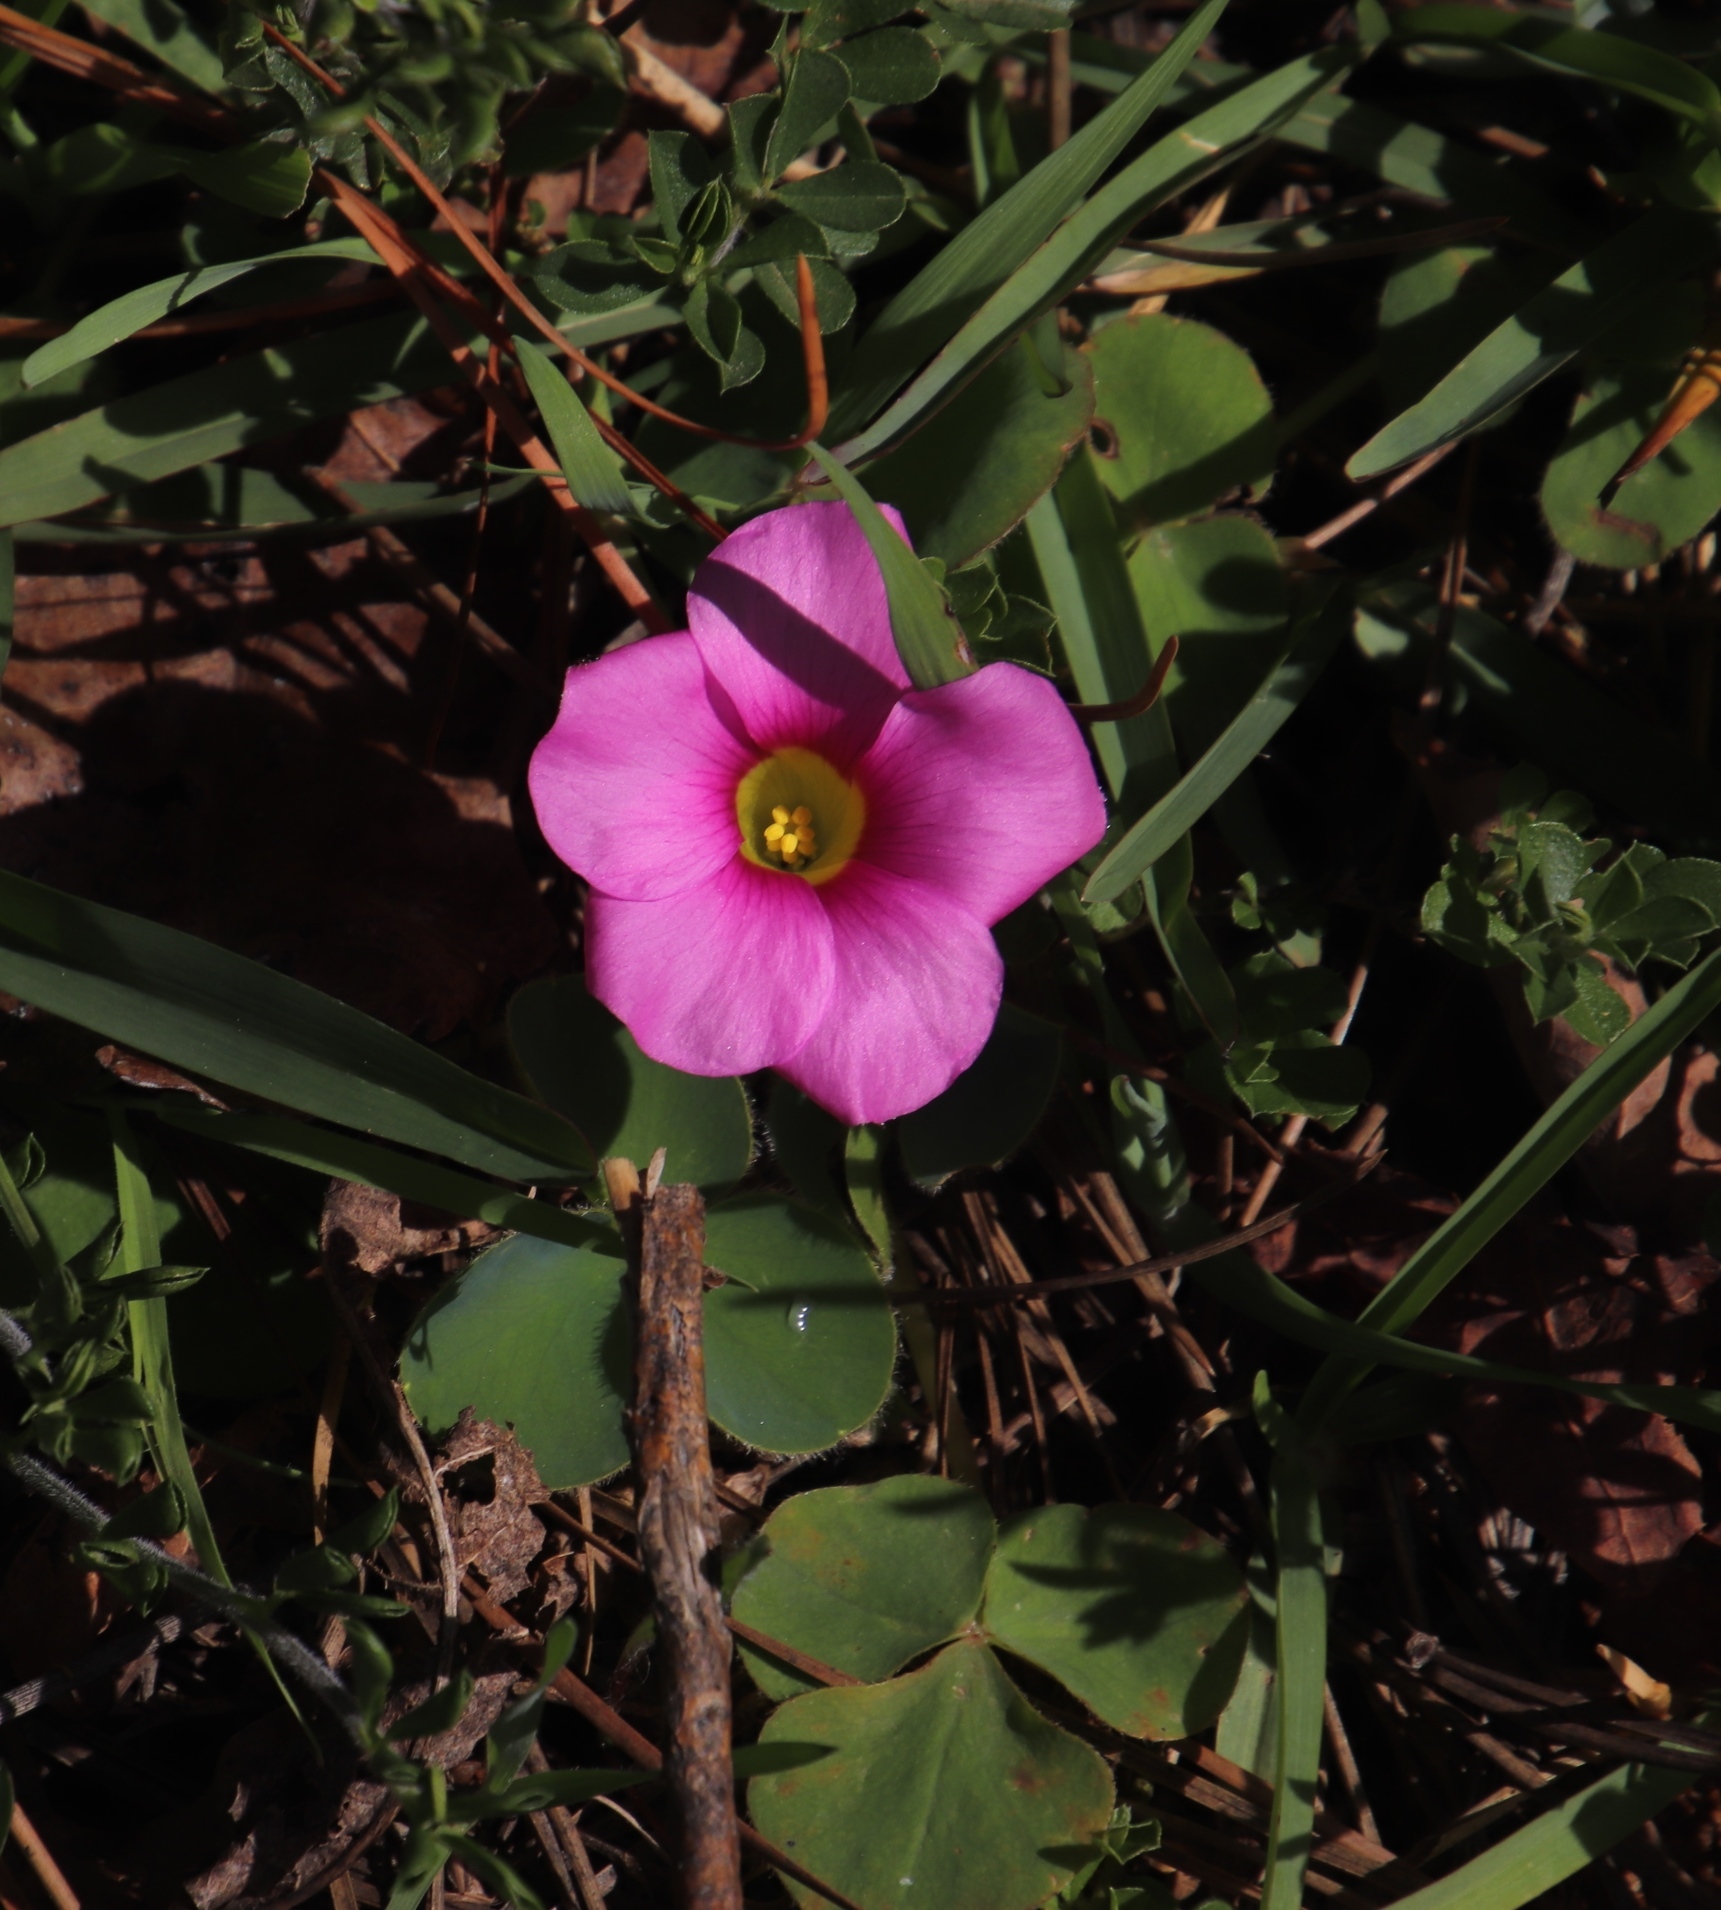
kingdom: Plantae
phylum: Tracheophyta
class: Magnoliopsida
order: Oxalidales
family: Oxalidaceae
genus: Oxalis
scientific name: Oxalis purpurea
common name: Purple woodsorrel
